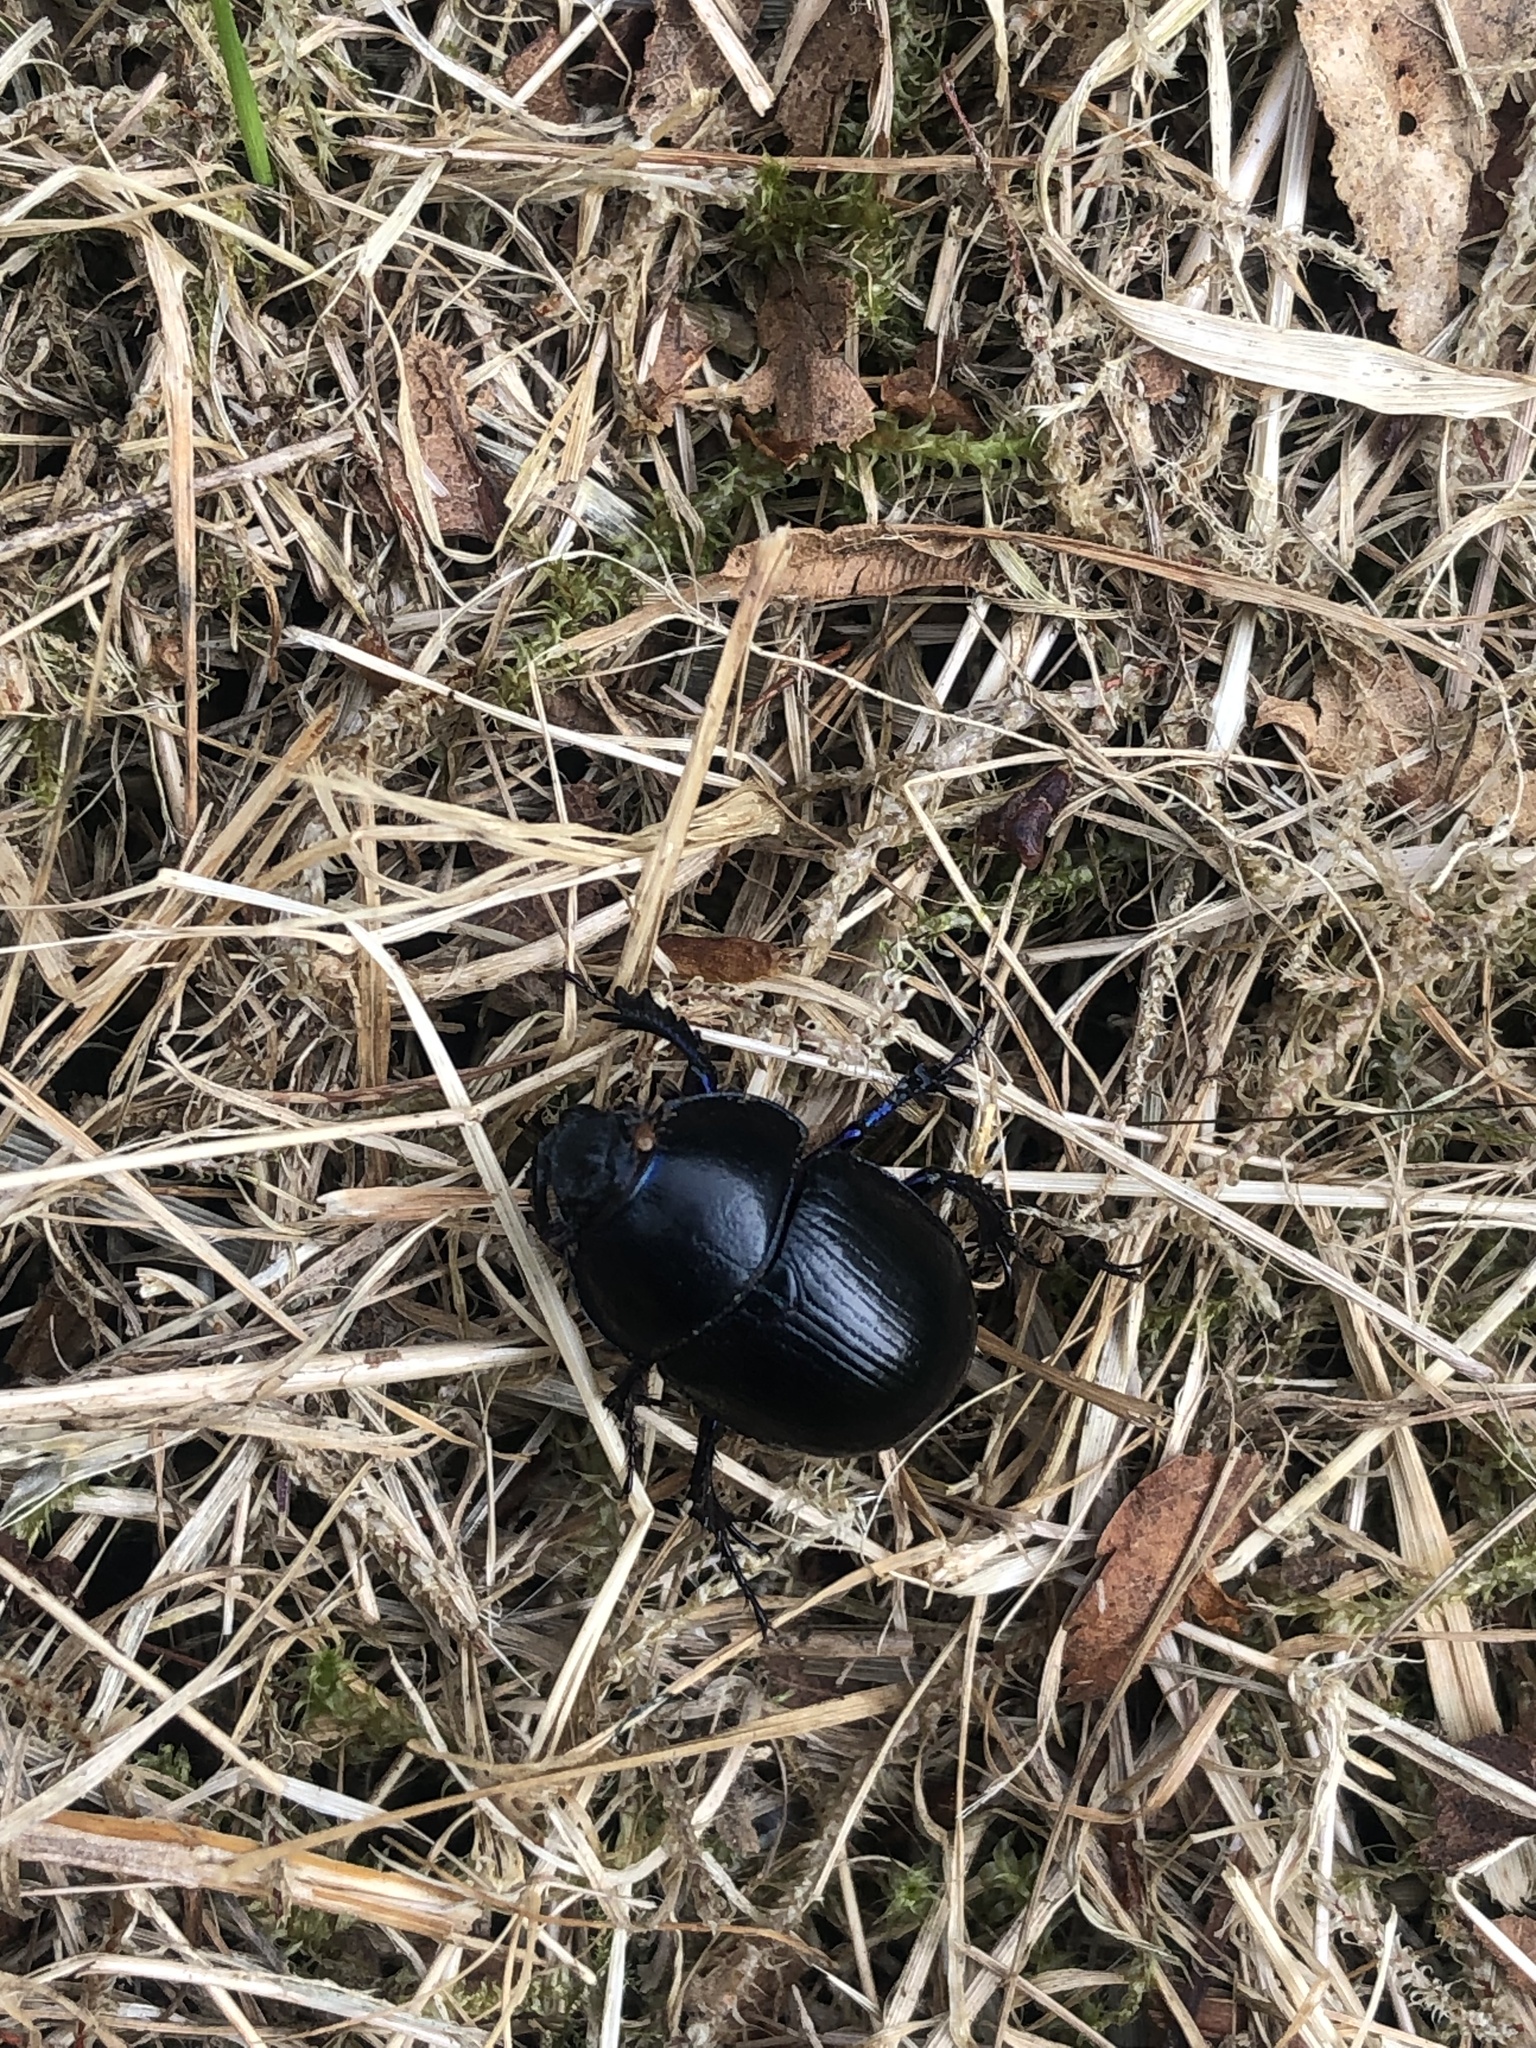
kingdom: Animalia
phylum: Arthropoda
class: Insecta
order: Coleoptera
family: Geotrupidae
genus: Anoplotrupes
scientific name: Anoplotrupes stercorosus
